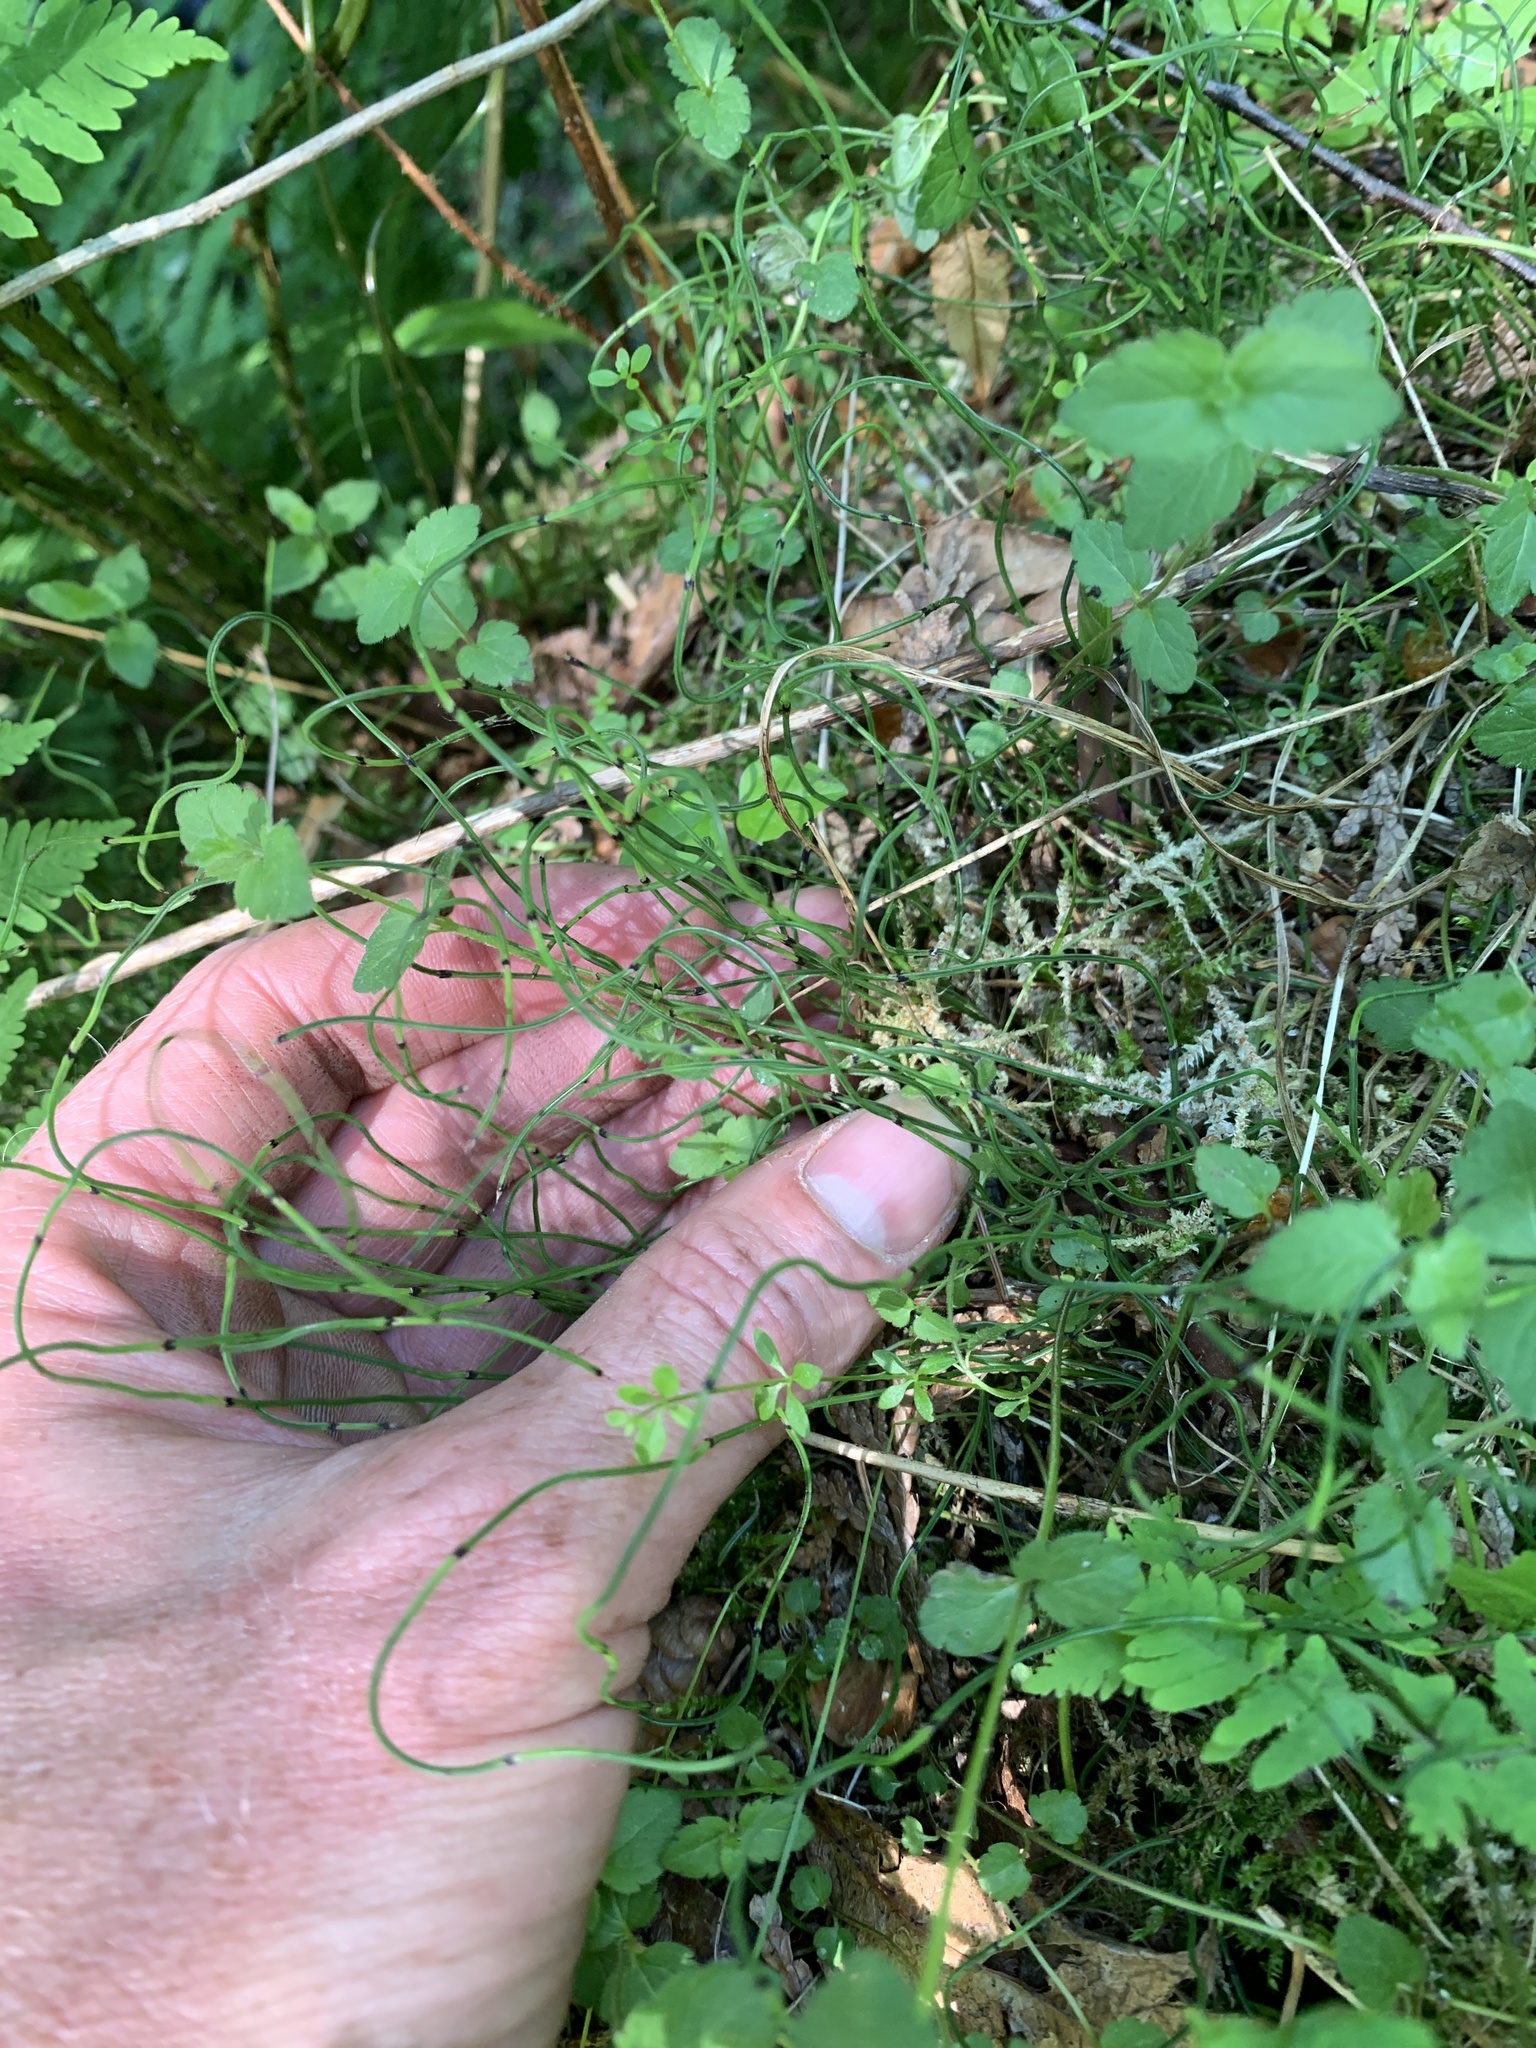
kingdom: Plantae
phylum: Tracheophyta
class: Polypodiopsida
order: Equisetales
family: Equisetaceae
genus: Equisetum
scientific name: Equisetum scirpoides
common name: Delicate horsetail
